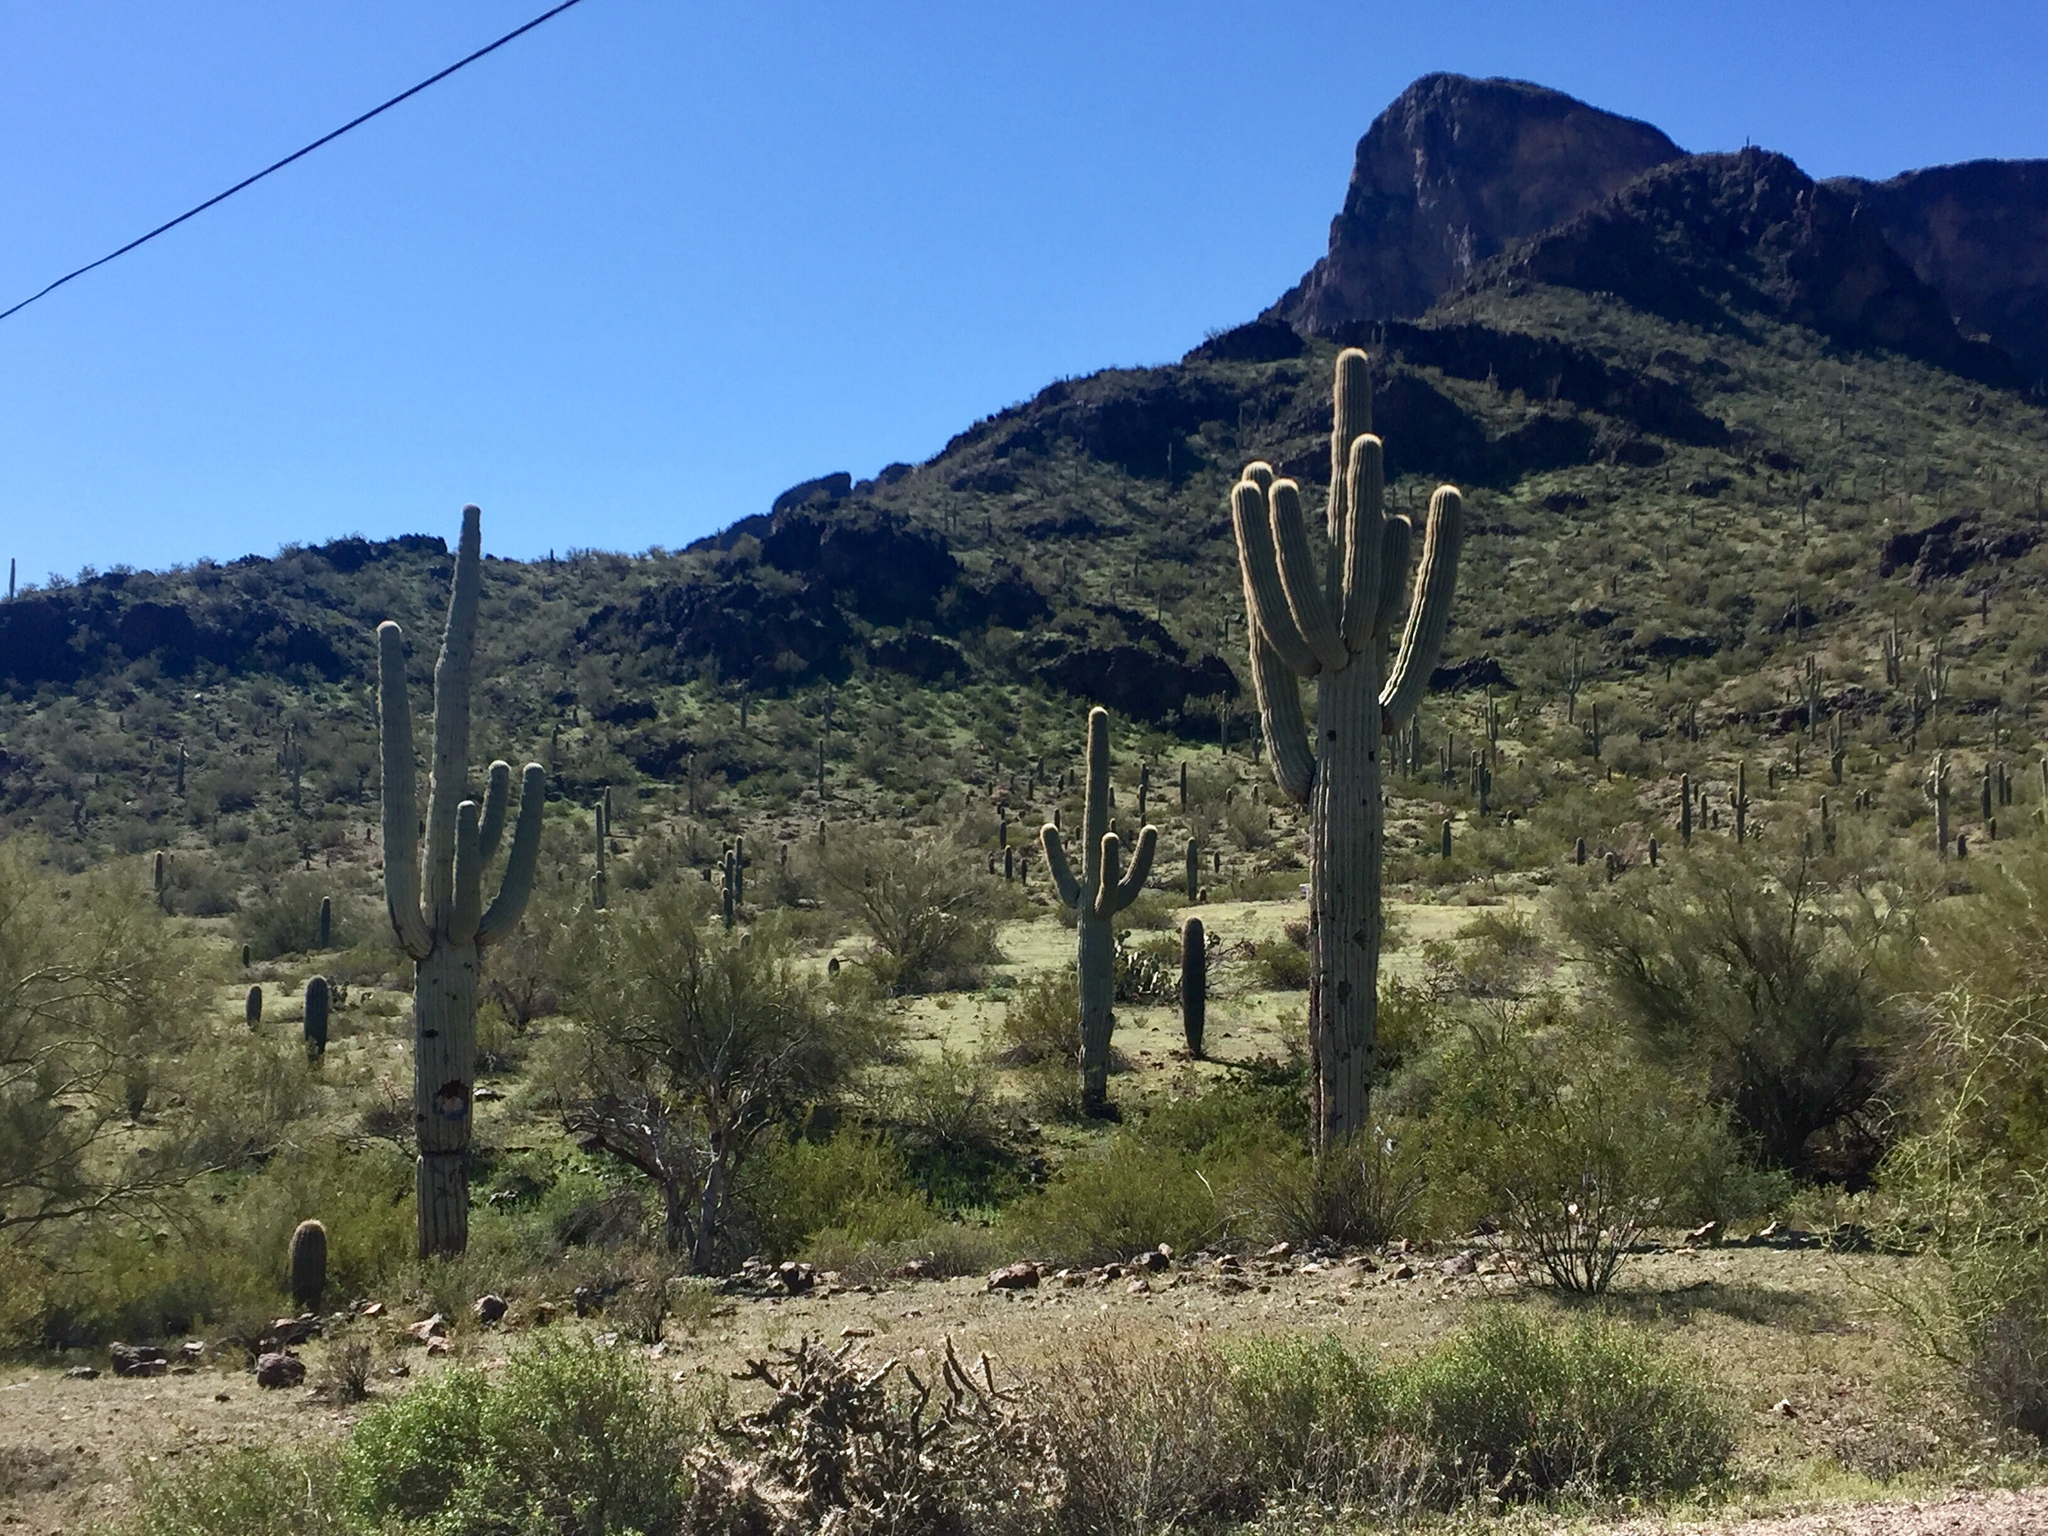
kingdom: Plantae
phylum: Tracheophyta
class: Magnoliopsida
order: Caryophyllales
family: Cactaceae
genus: Carnegiea
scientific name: Carnegiea gigantea
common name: Saguaro
